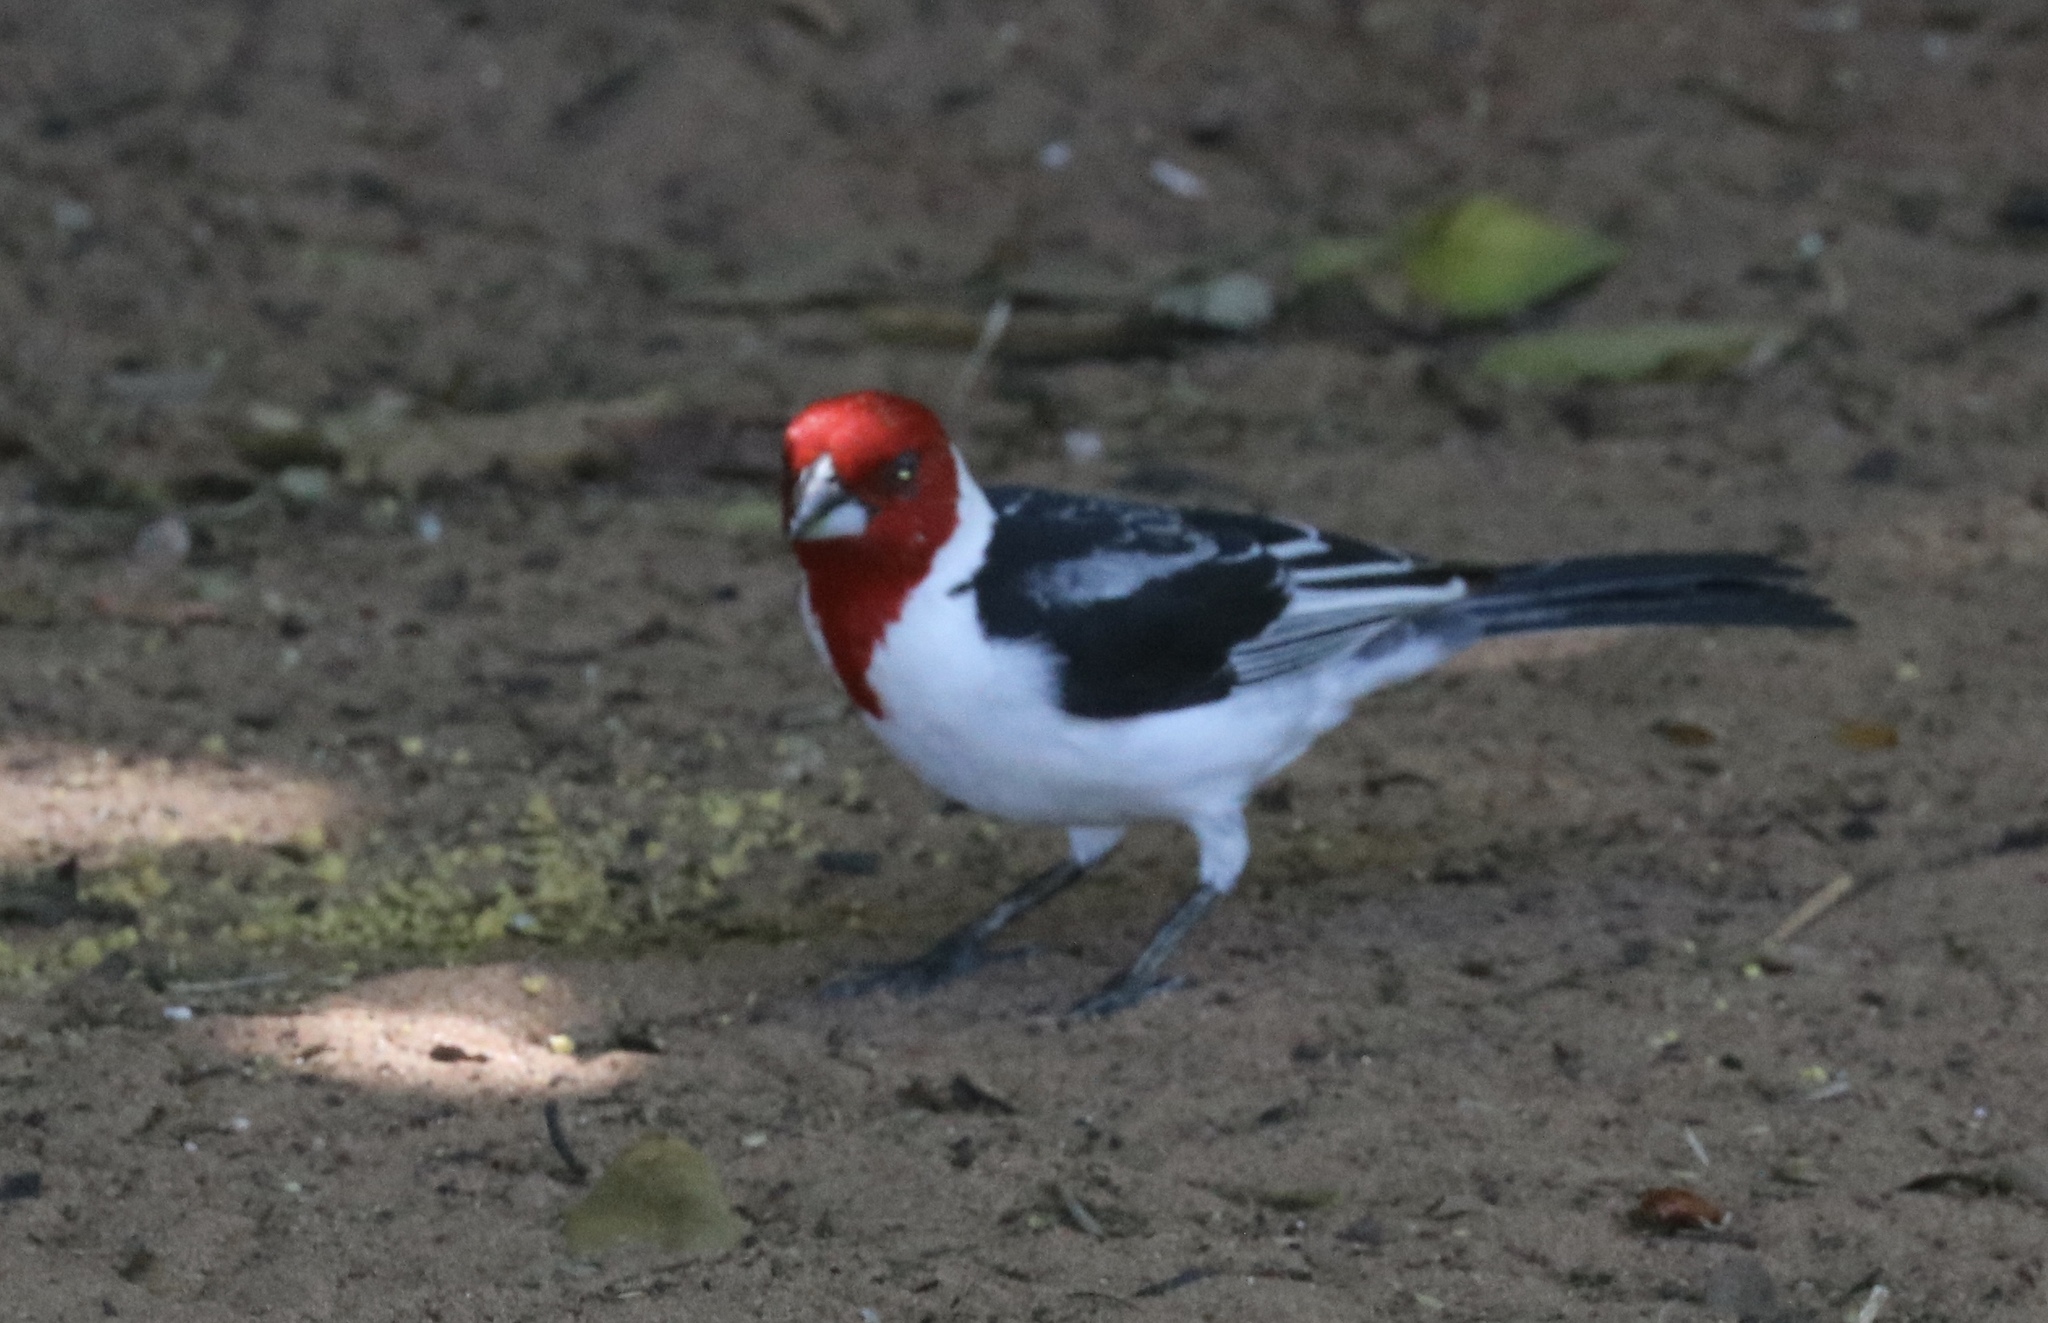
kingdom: Animalia
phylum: Chordata
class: Aves
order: Passeriformes
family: Thraupidae
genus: Paroaria
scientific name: Paroaria dominicana
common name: Red-cowled cardinal
